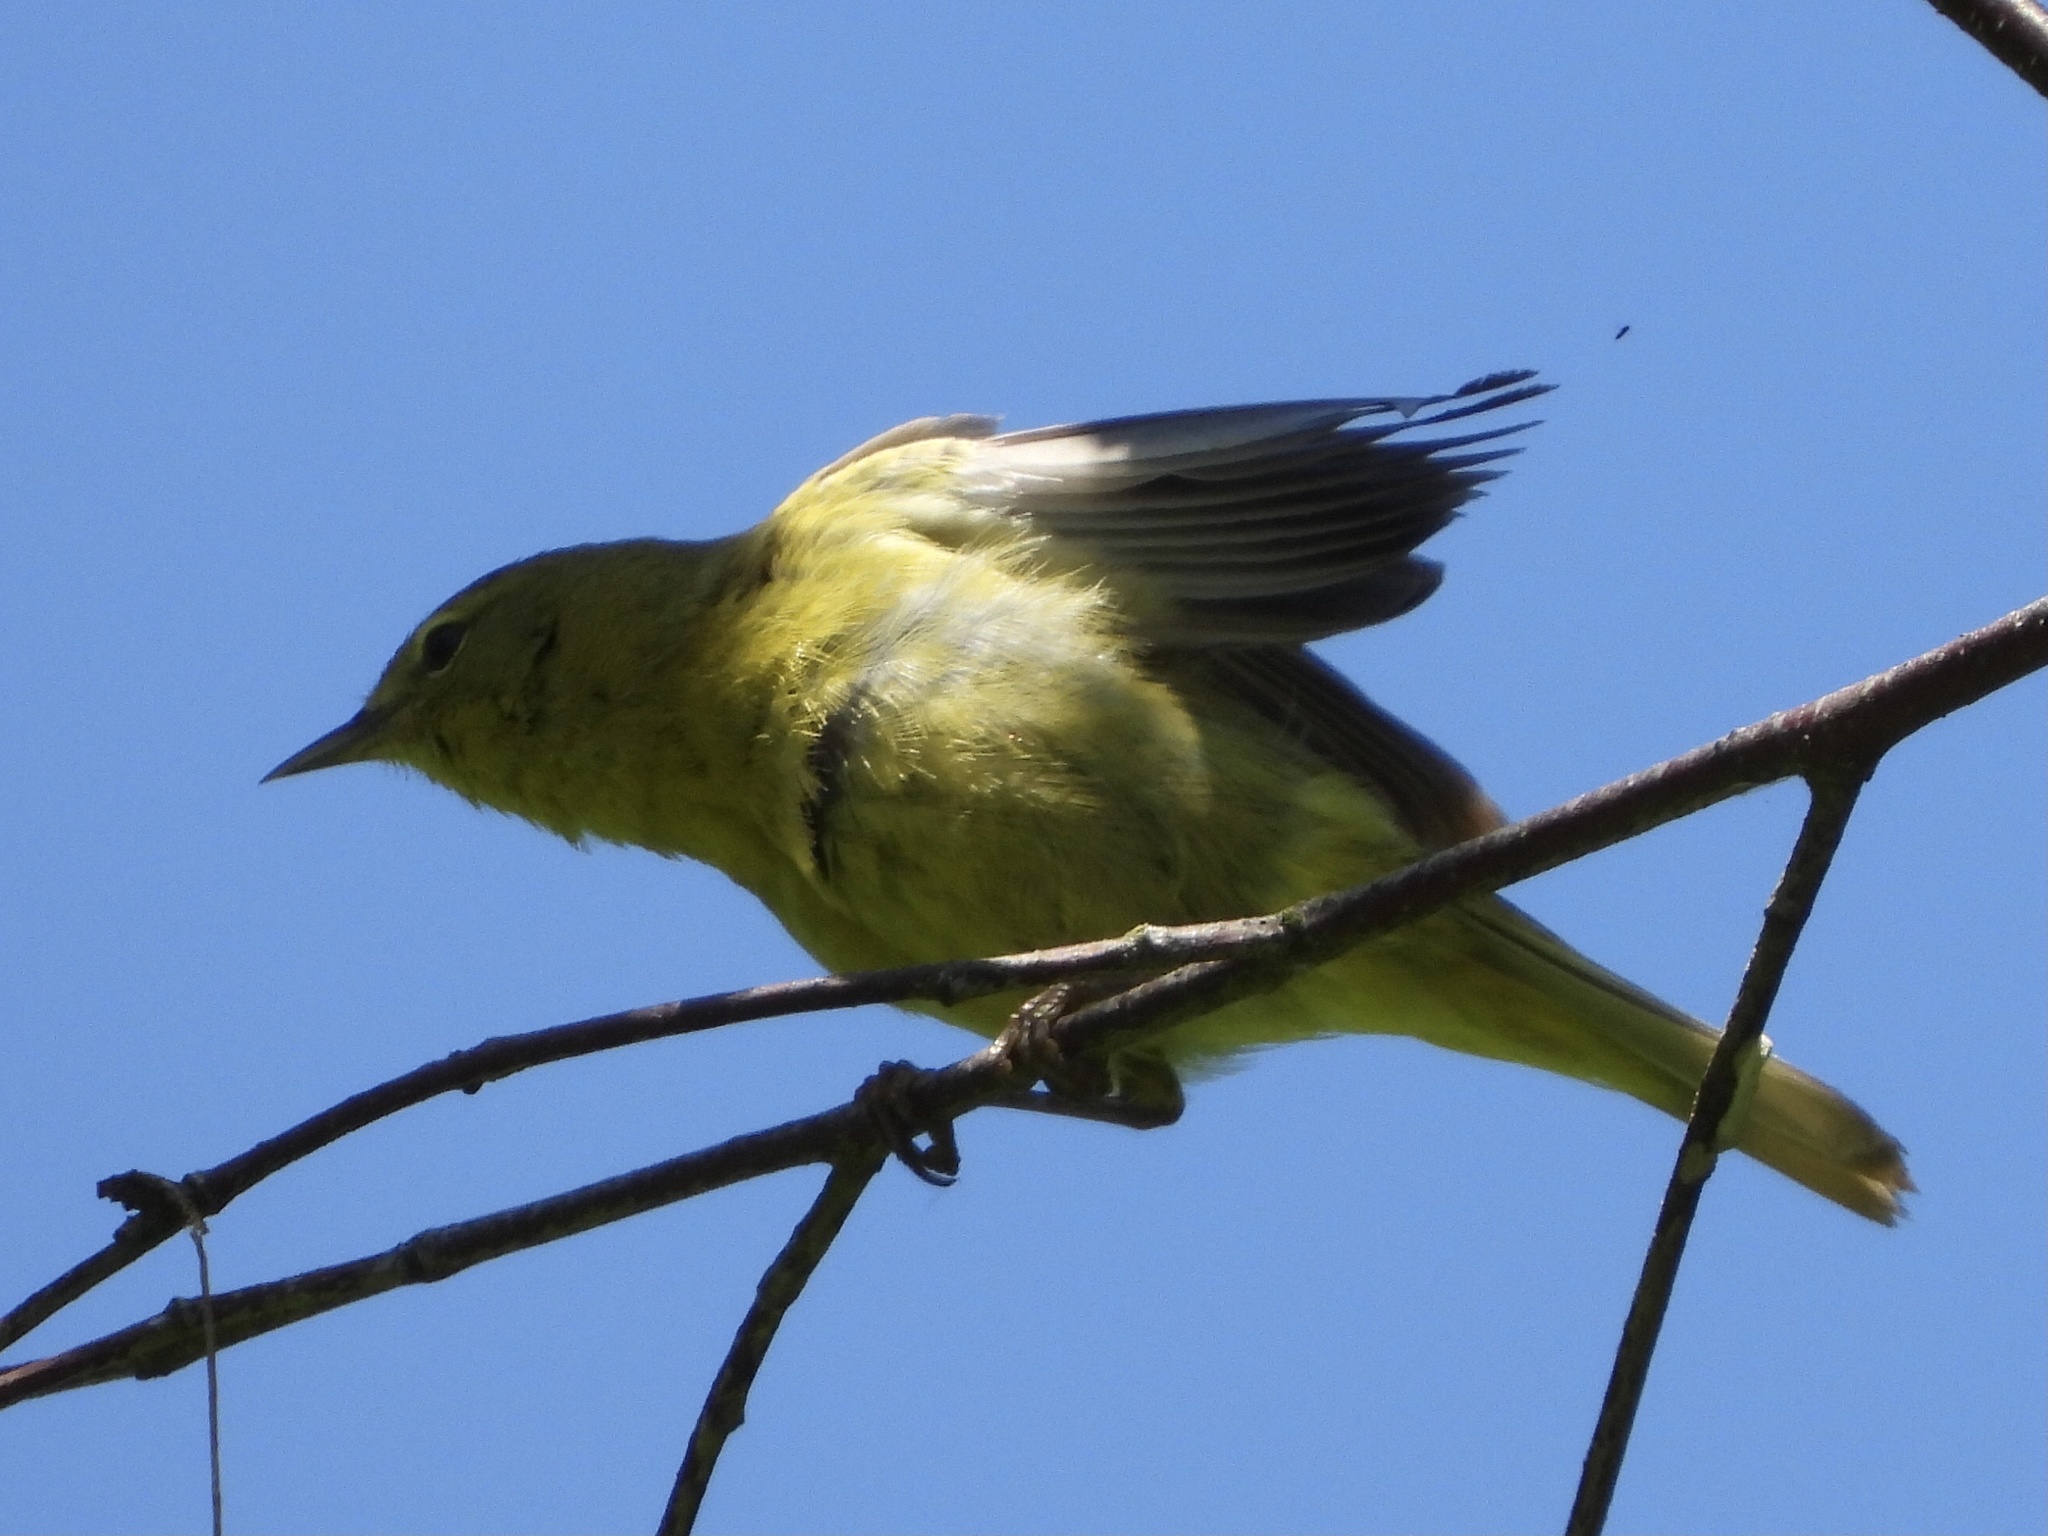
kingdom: Animalia
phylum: Chordata
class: Aves
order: Passeriformes
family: Parulidae
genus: Leiothlypis
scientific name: Leiothlypis celata
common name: Orange-crowned warbler
